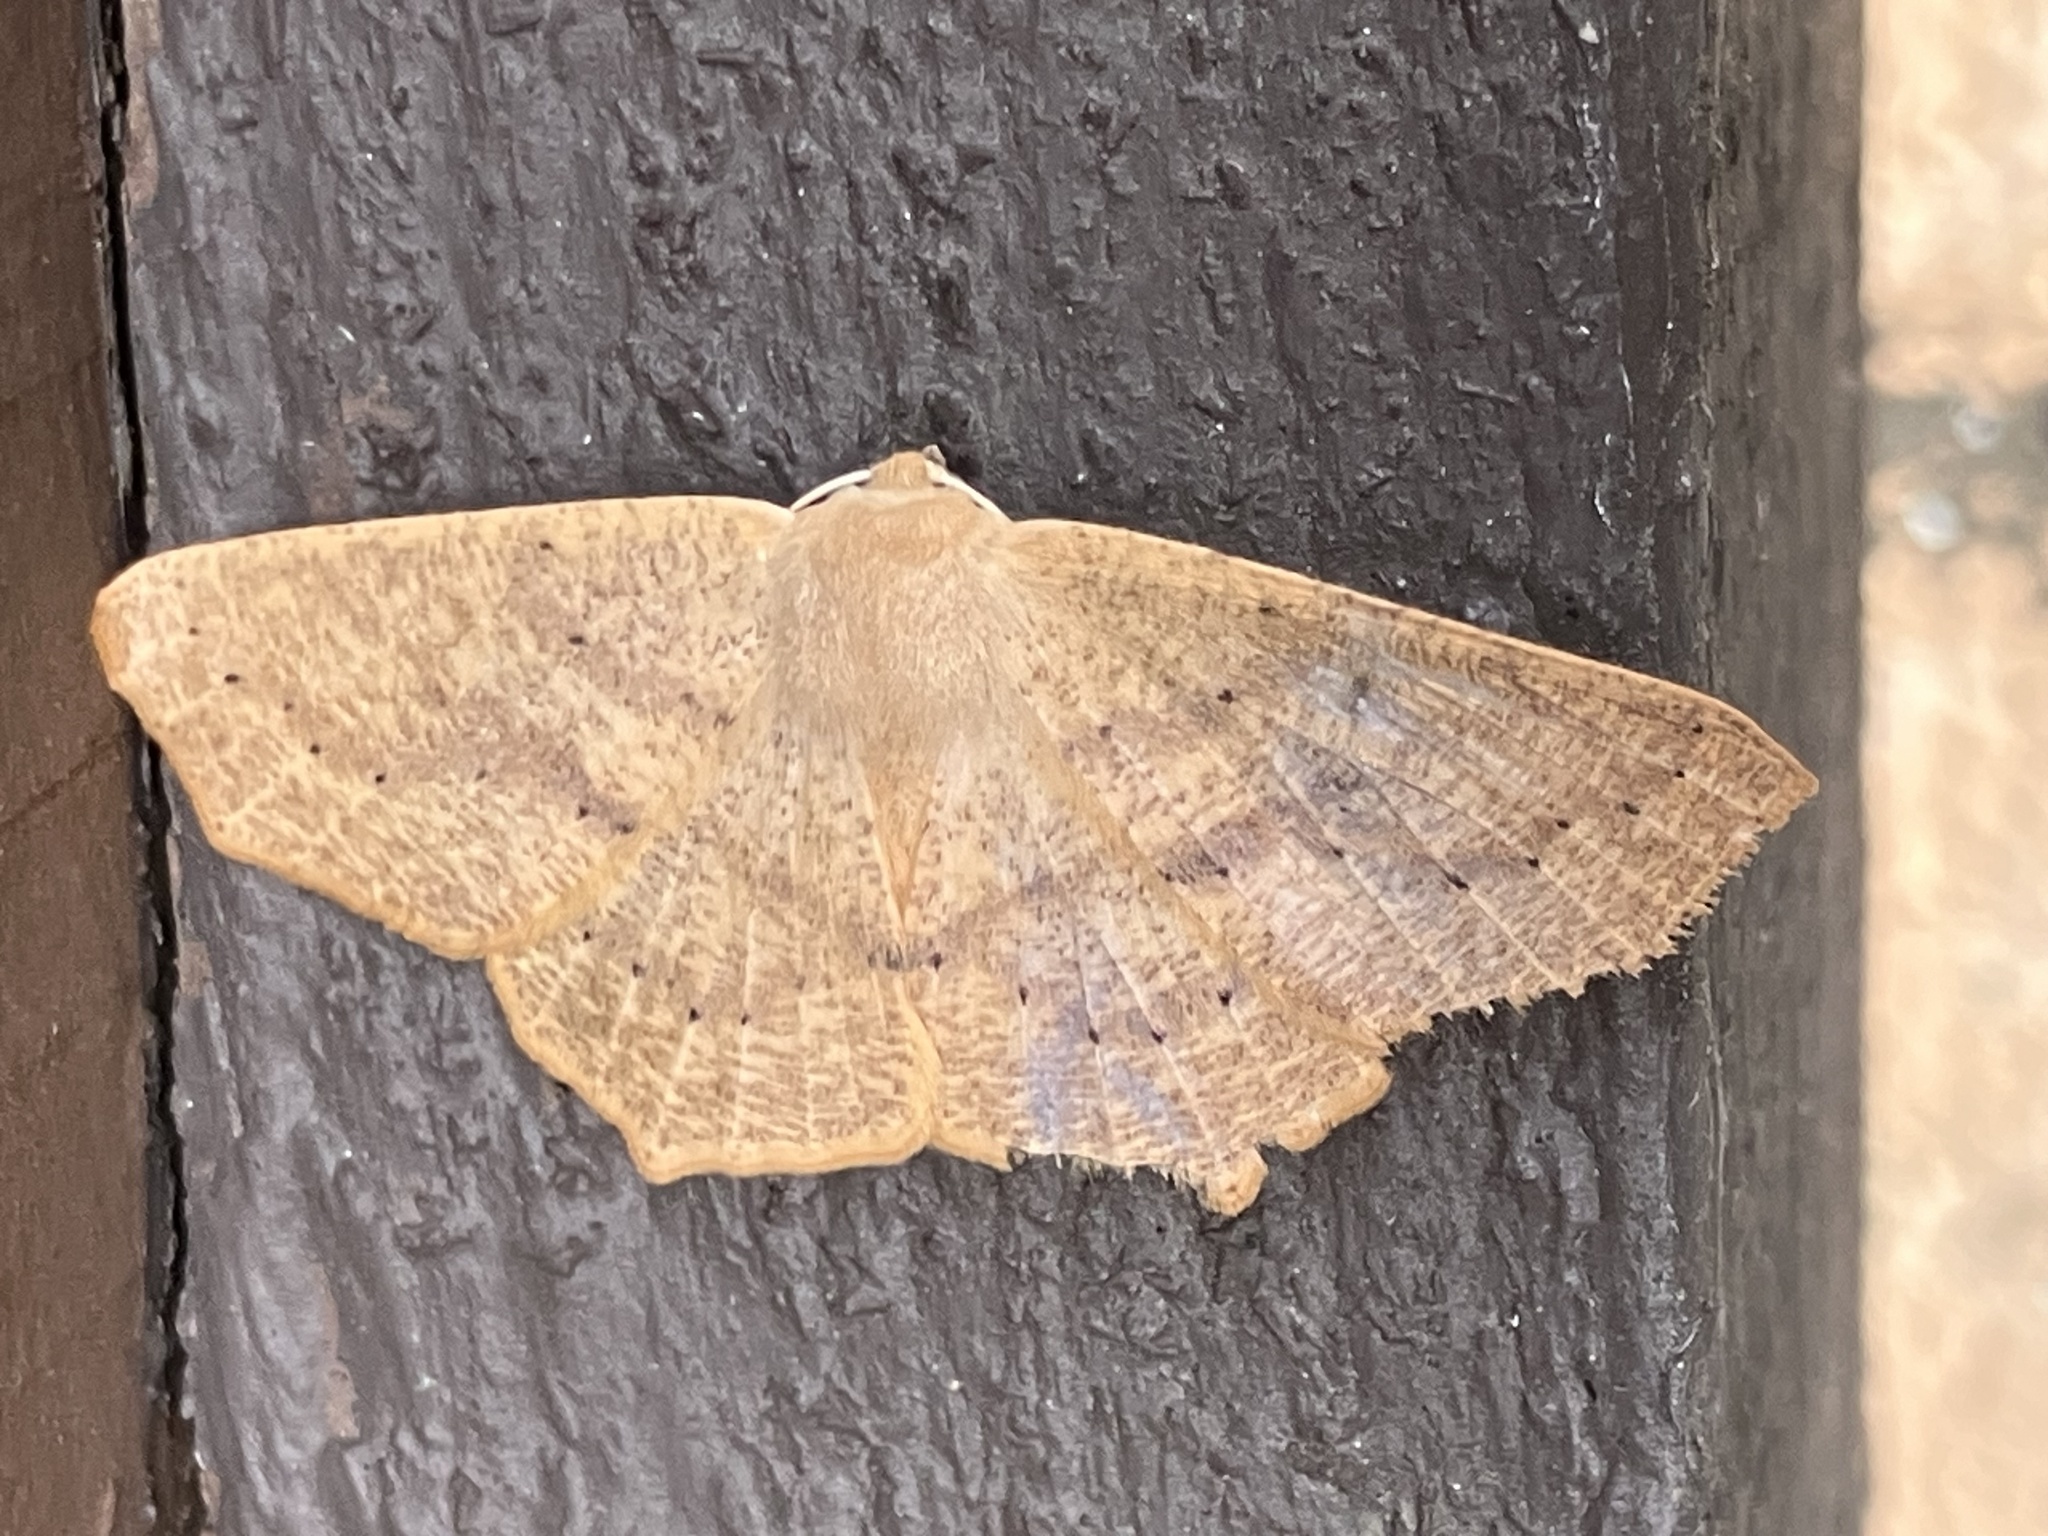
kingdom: Animalia
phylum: Arthropoda
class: Insecta
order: Lepidoptera
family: Geometridae
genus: Sabulodes
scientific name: Sabulodes aegrotata
